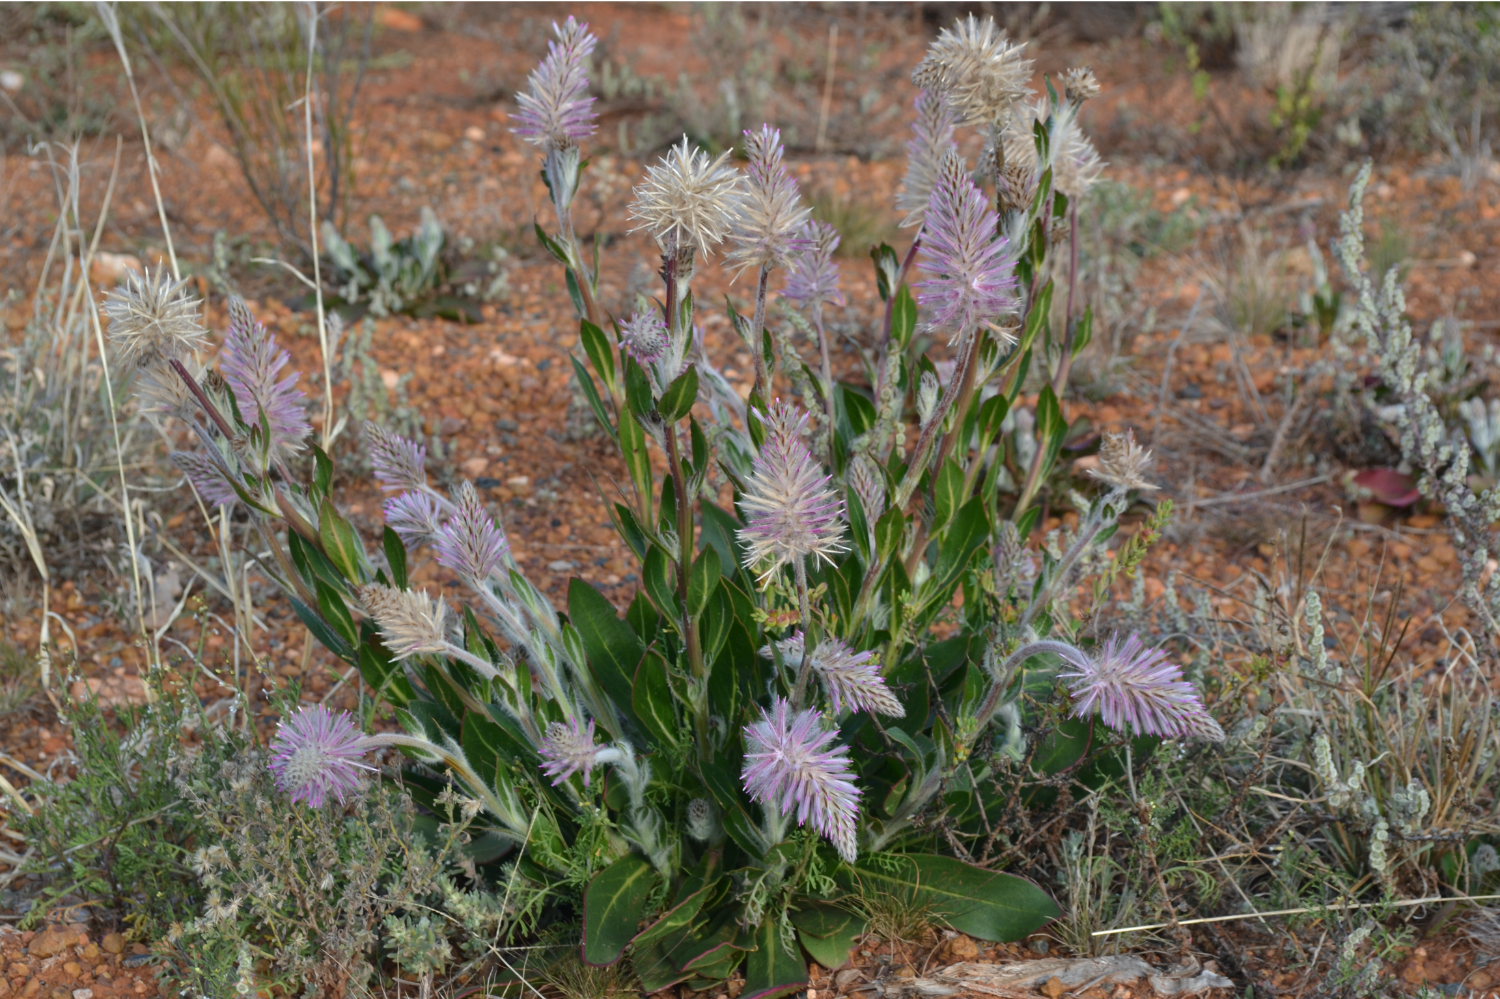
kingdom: Plantae
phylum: Tracheophyta
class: Magnoliopsida
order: Caryophyllales
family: Amaranthaceae
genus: Ptilotus
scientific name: Ptilotus exaltatus
